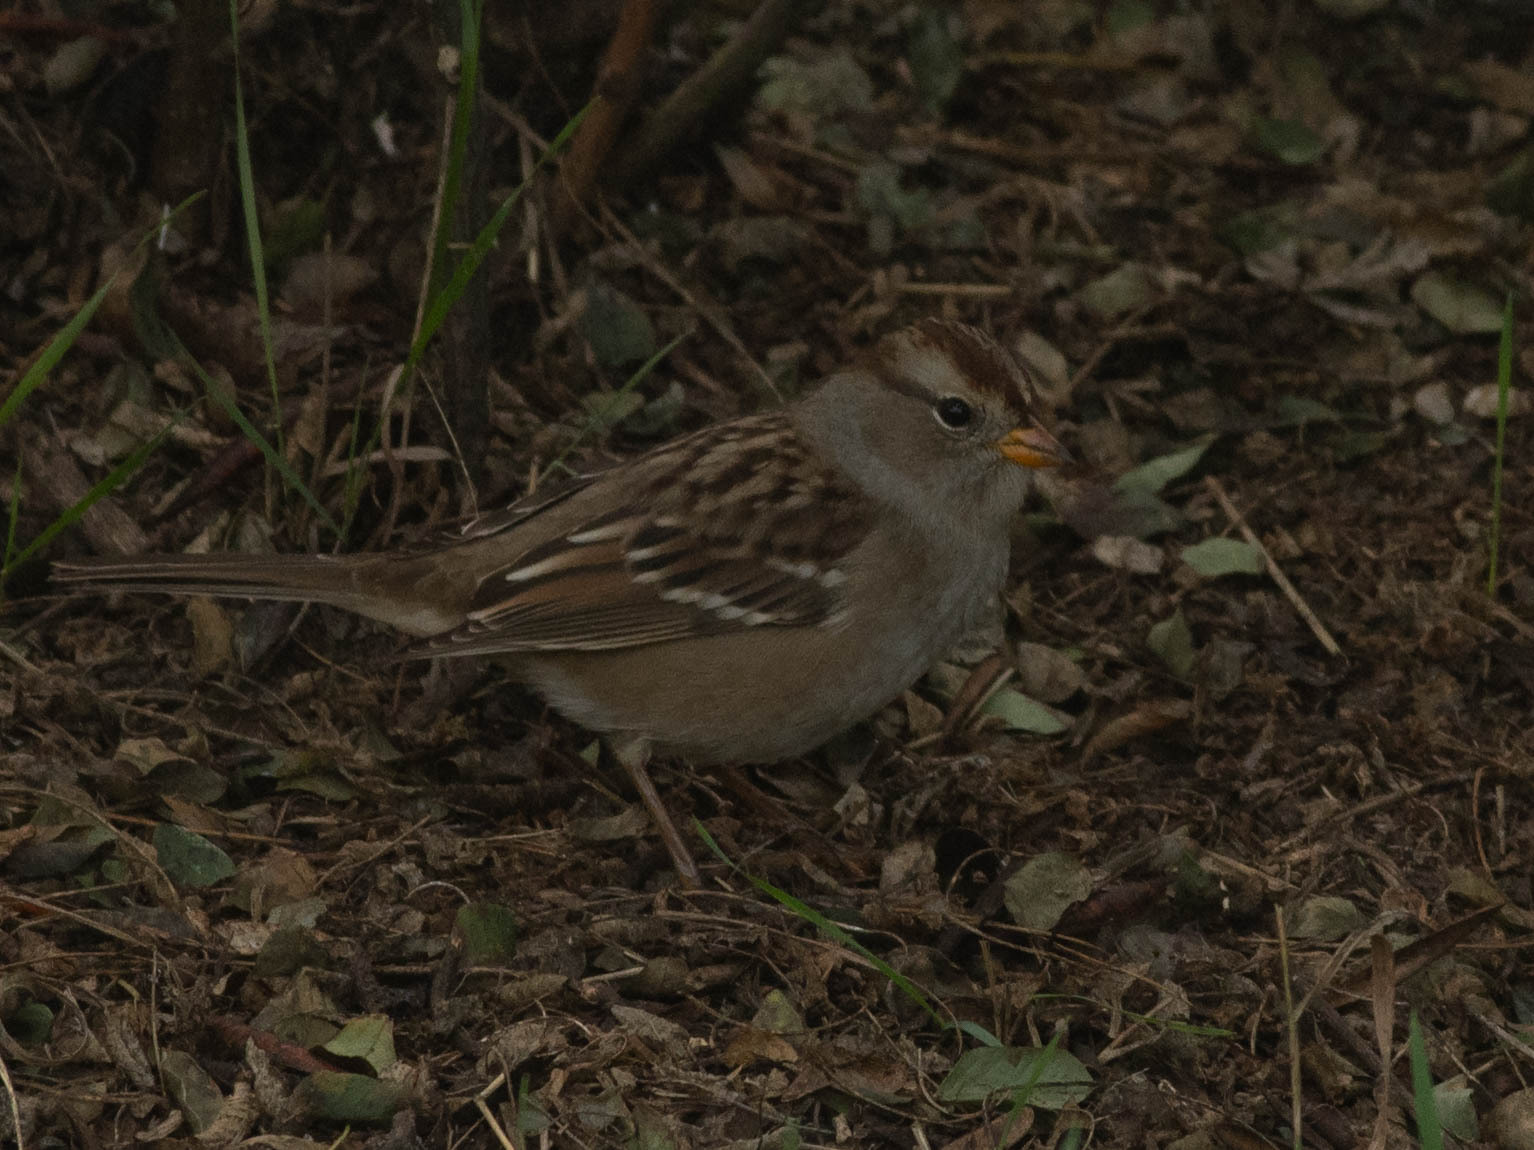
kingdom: Animalia
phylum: Chordata
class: Aves
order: Passeriformes
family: Passerellidae
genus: Zonotrichia
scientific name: Zonotrichia leucophrys
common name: White-crowned sparrow
